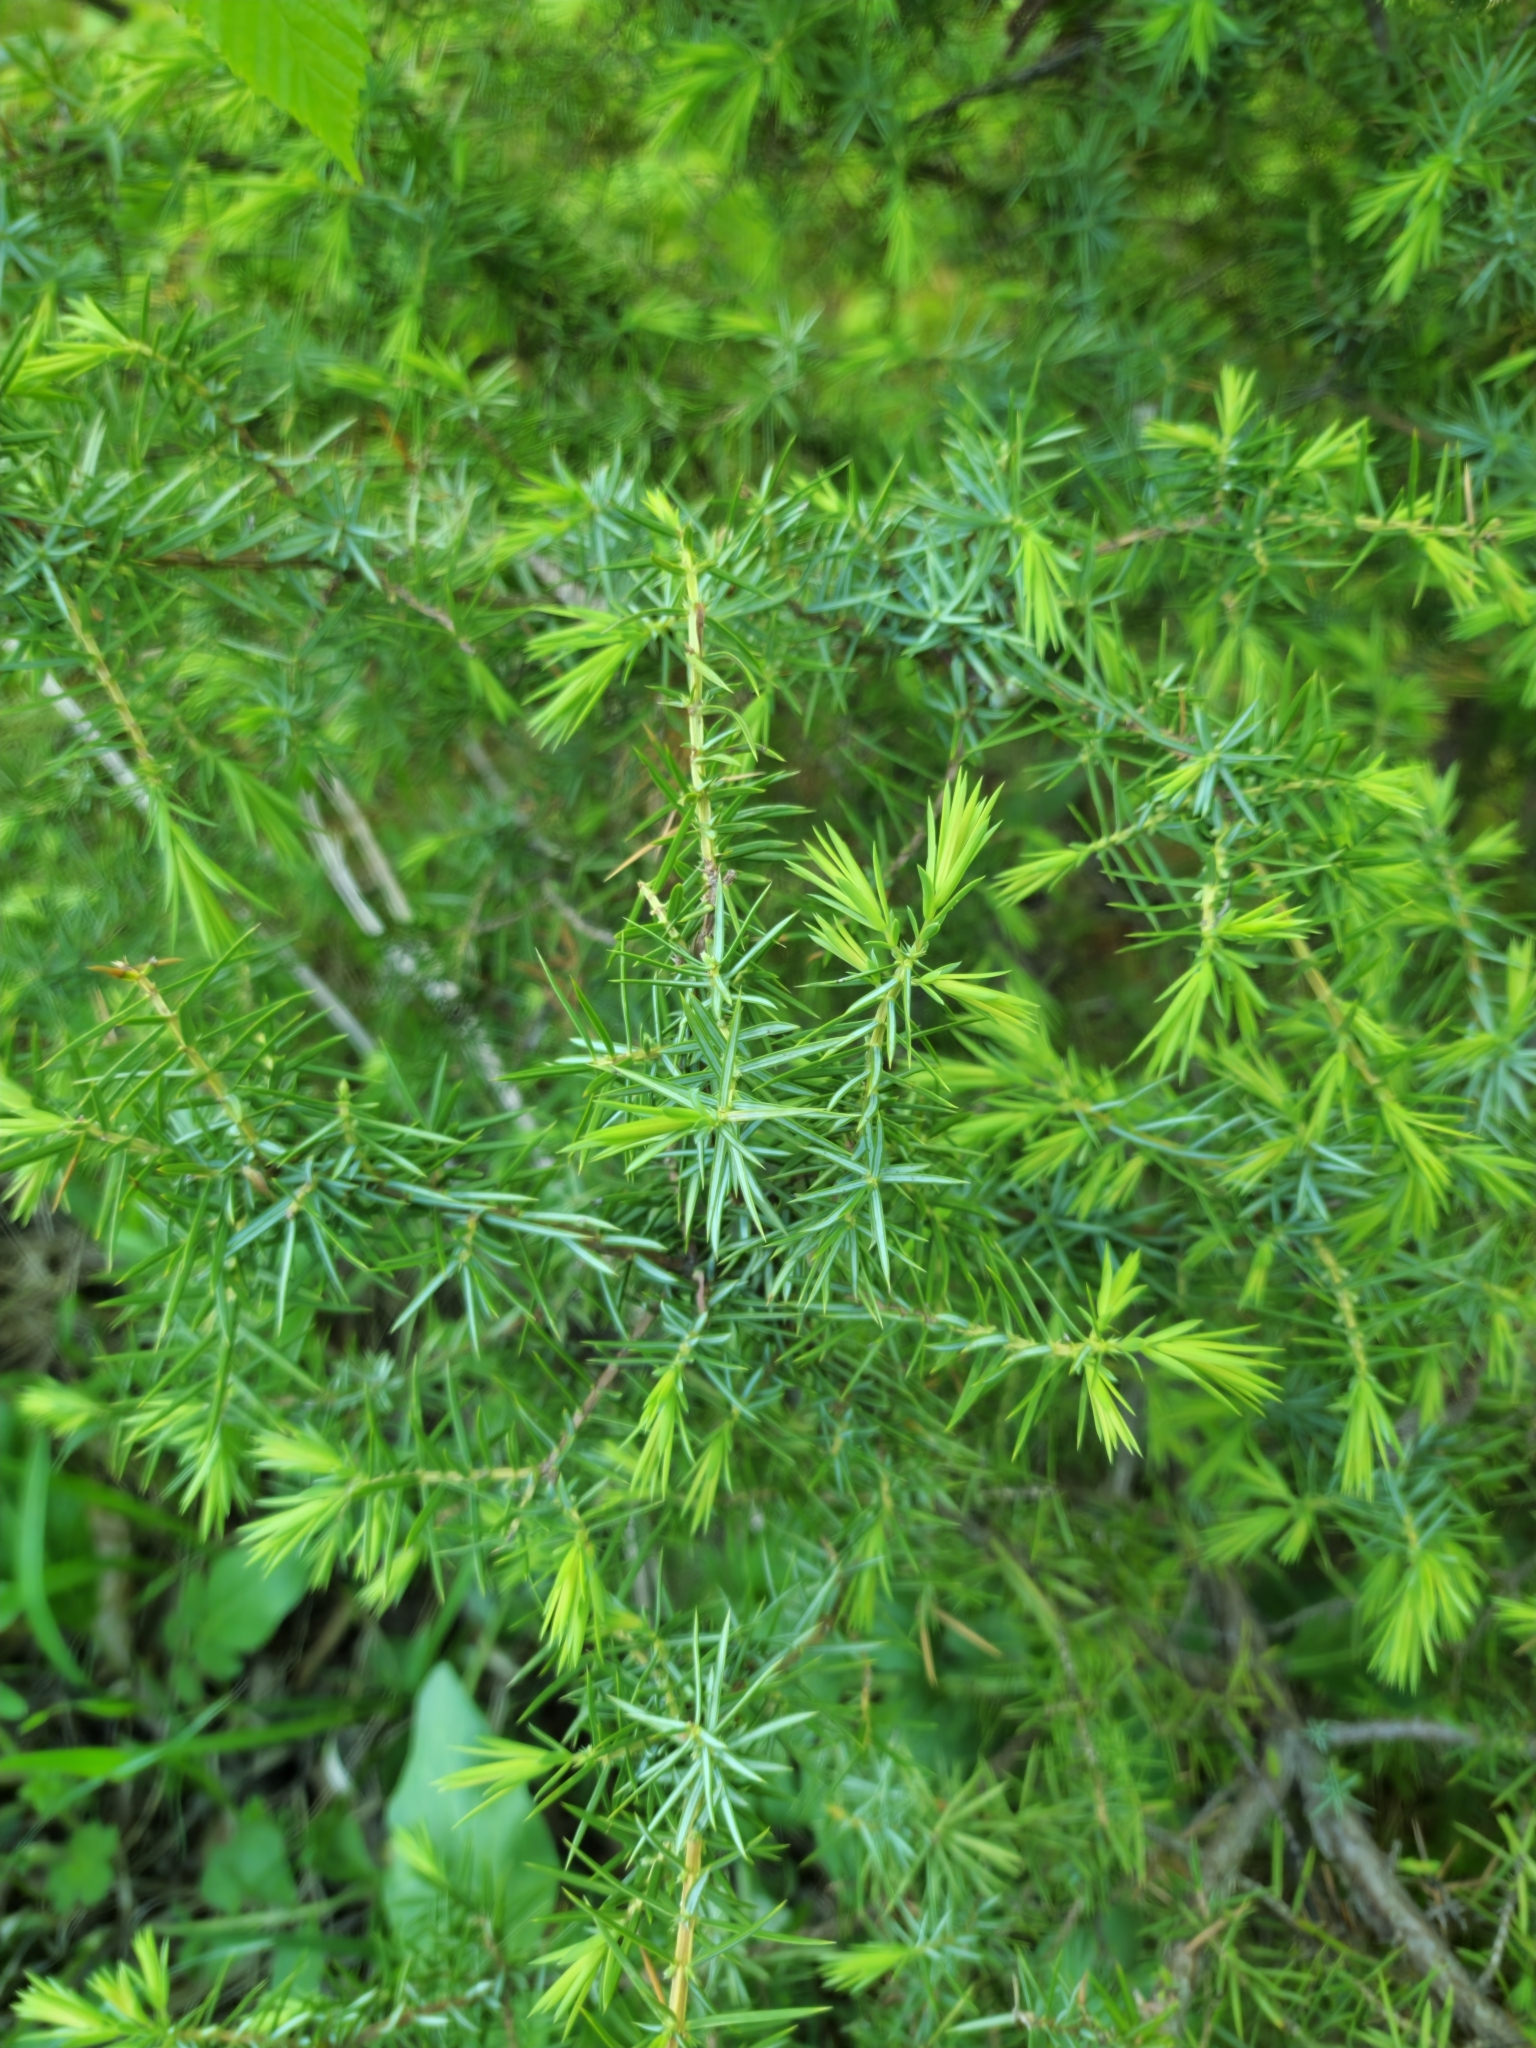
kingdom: Plantae
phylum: Tracheophyta
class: Pinopsida
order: Pinales
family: Cupressaceae
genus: Juniperus
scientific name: Juniperus communis
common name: Common juniper
